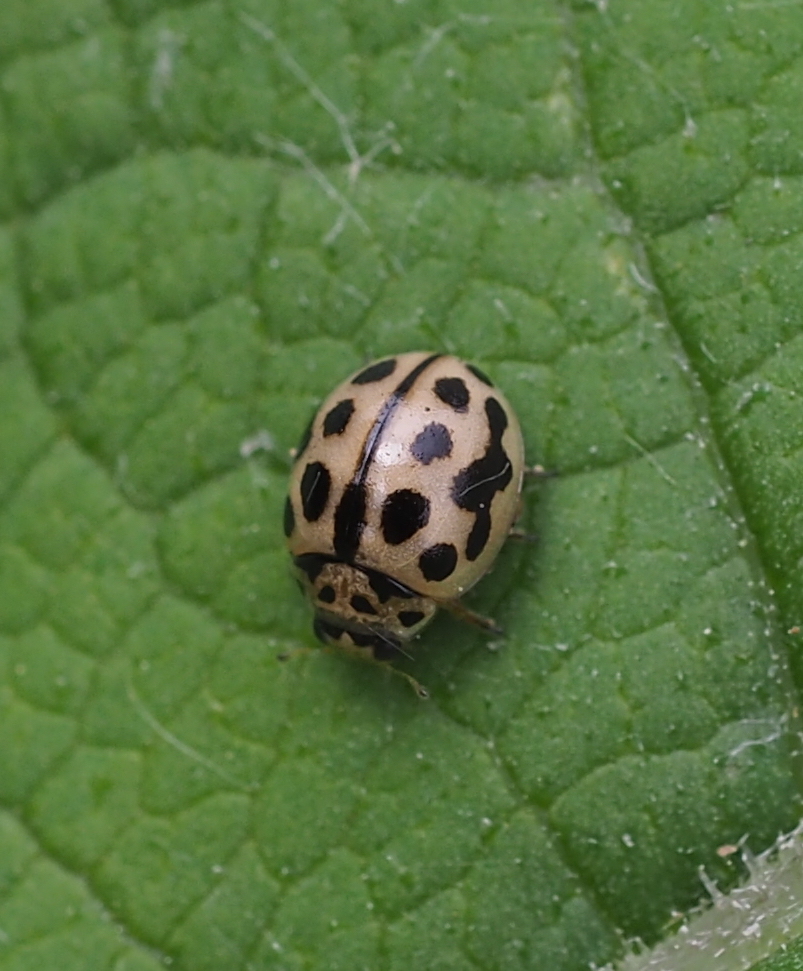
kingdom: Animalia
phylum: Arthropoda
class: Insecta
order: Coleoptera
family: Coccinellidae
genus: Tytthaspis
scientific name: Tytthaspis sedecimpunctata
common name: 16-spot ladybird
